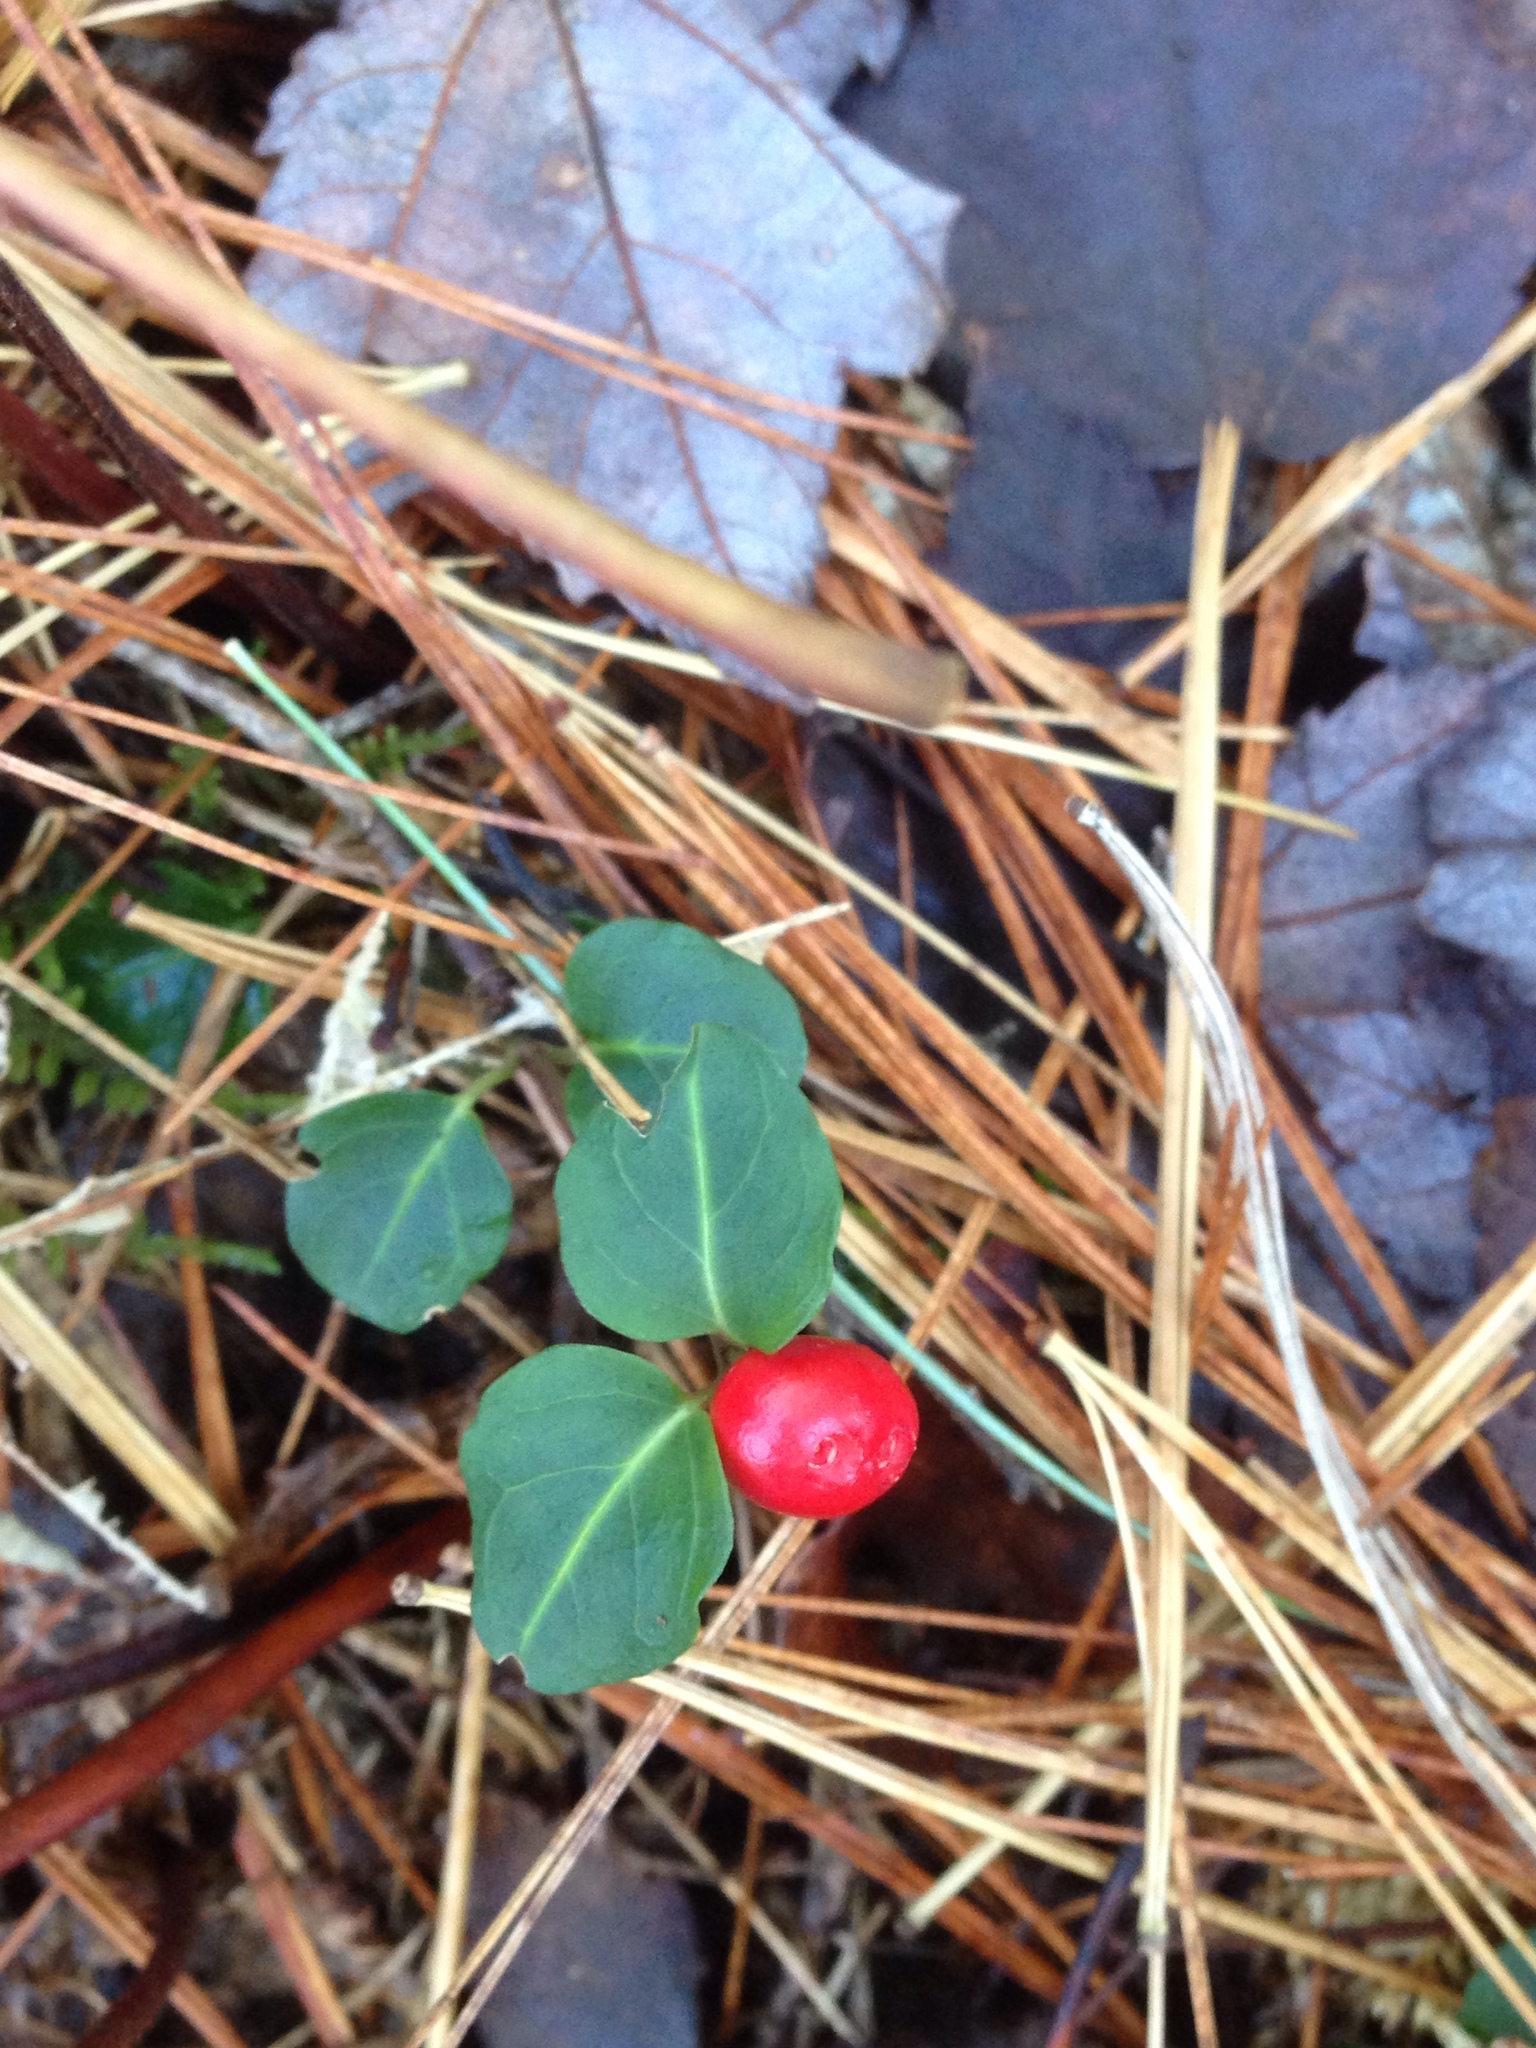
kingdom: Plantae
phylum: Tracheophyta
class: Magnoliopsida
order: Gentianales
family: Rubiaceae
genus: Mitchella
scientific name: Mitchella repens
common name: Partridge-berry
